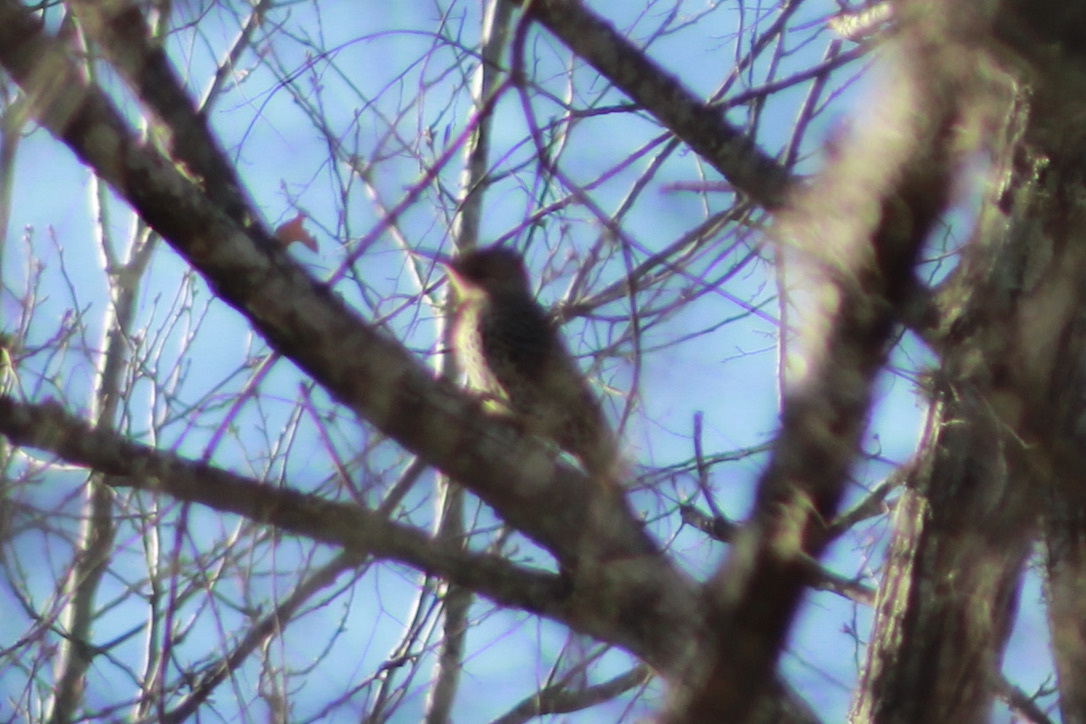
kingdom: Animalia
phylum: Chordata
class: Aves
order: Piciformes
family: Picidae
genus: Colaptes
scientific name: Colaptes auratus
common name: Northern flicker
